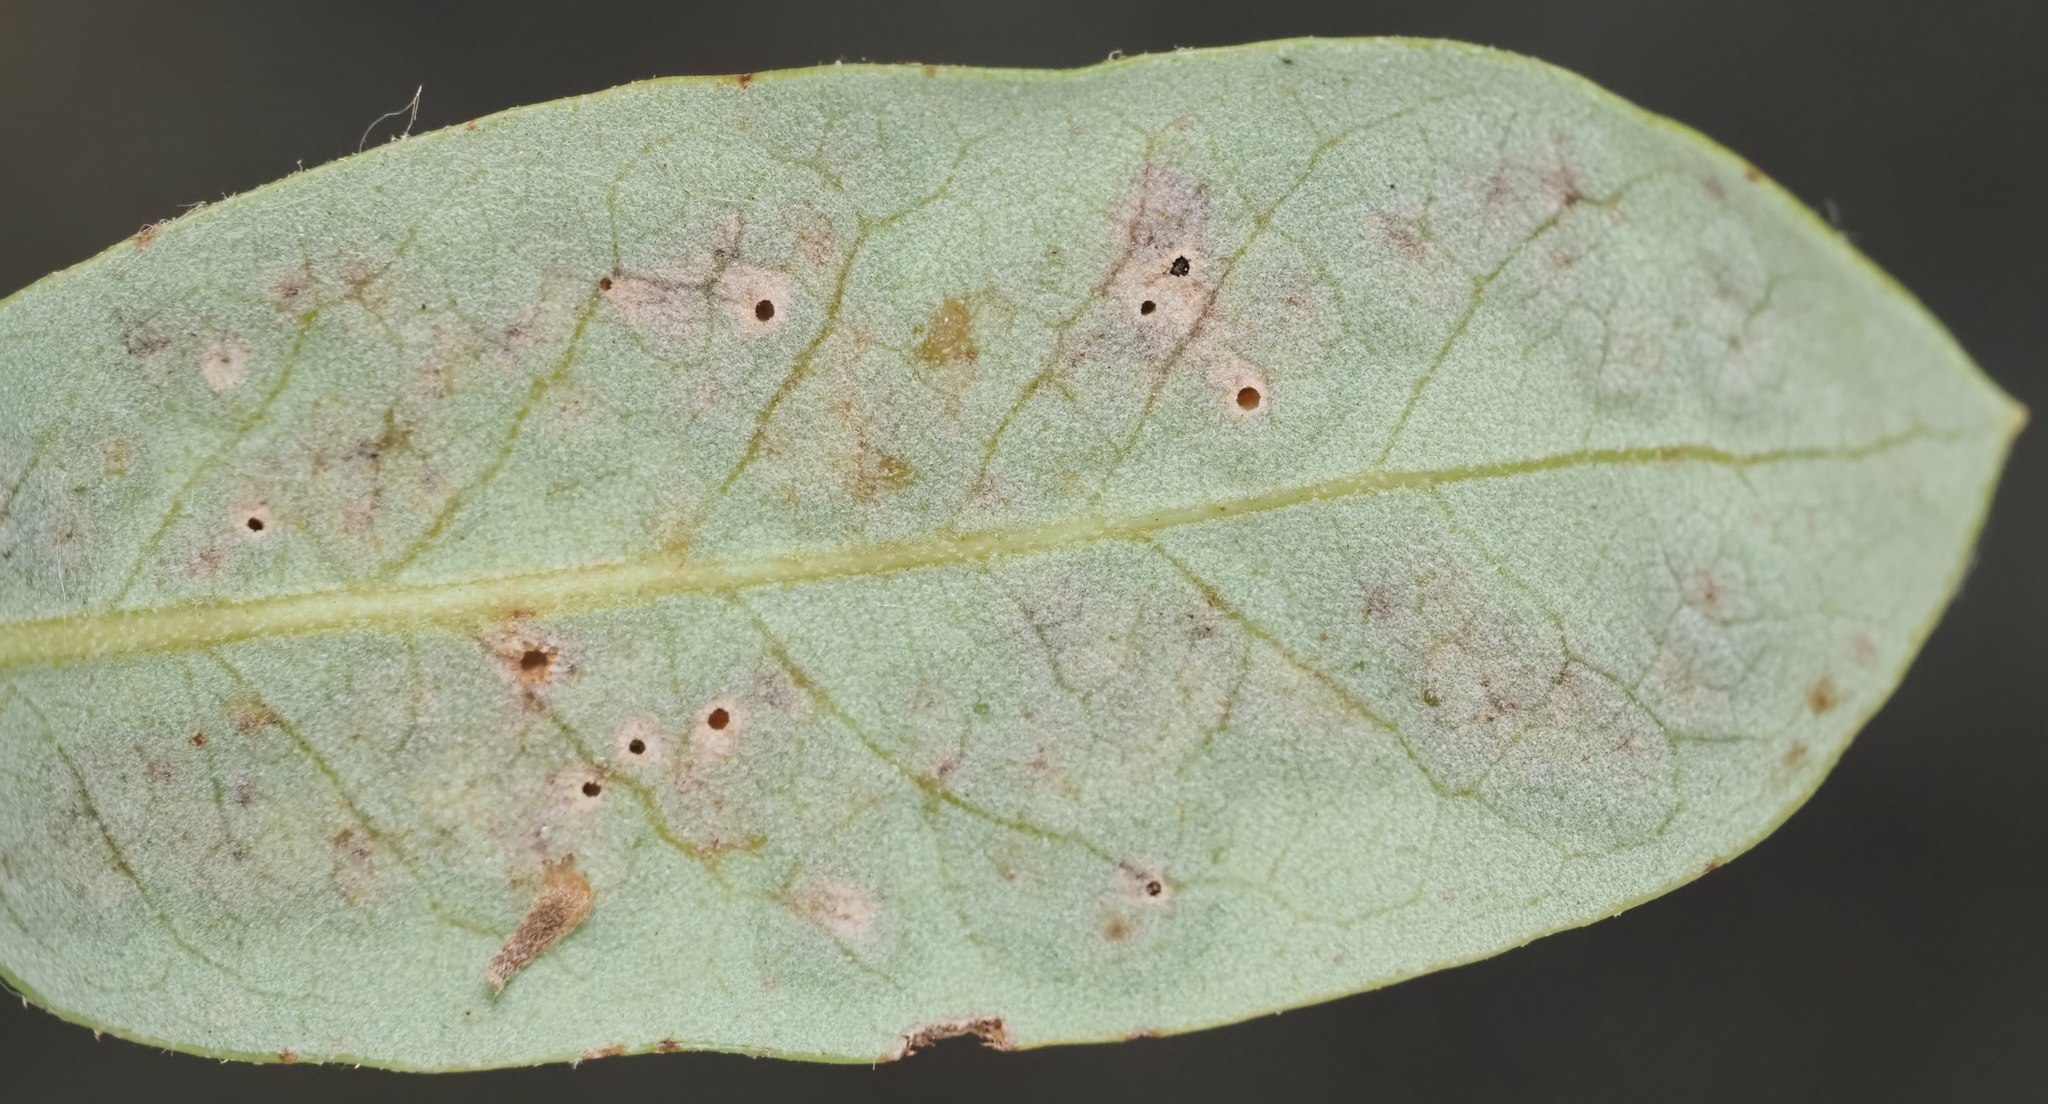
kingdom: Animalia
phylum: Arthropoda
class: Insecta
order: Hymenoptera
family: Cynipidae
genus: Neuroterus
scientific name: Neuroterus bussae
